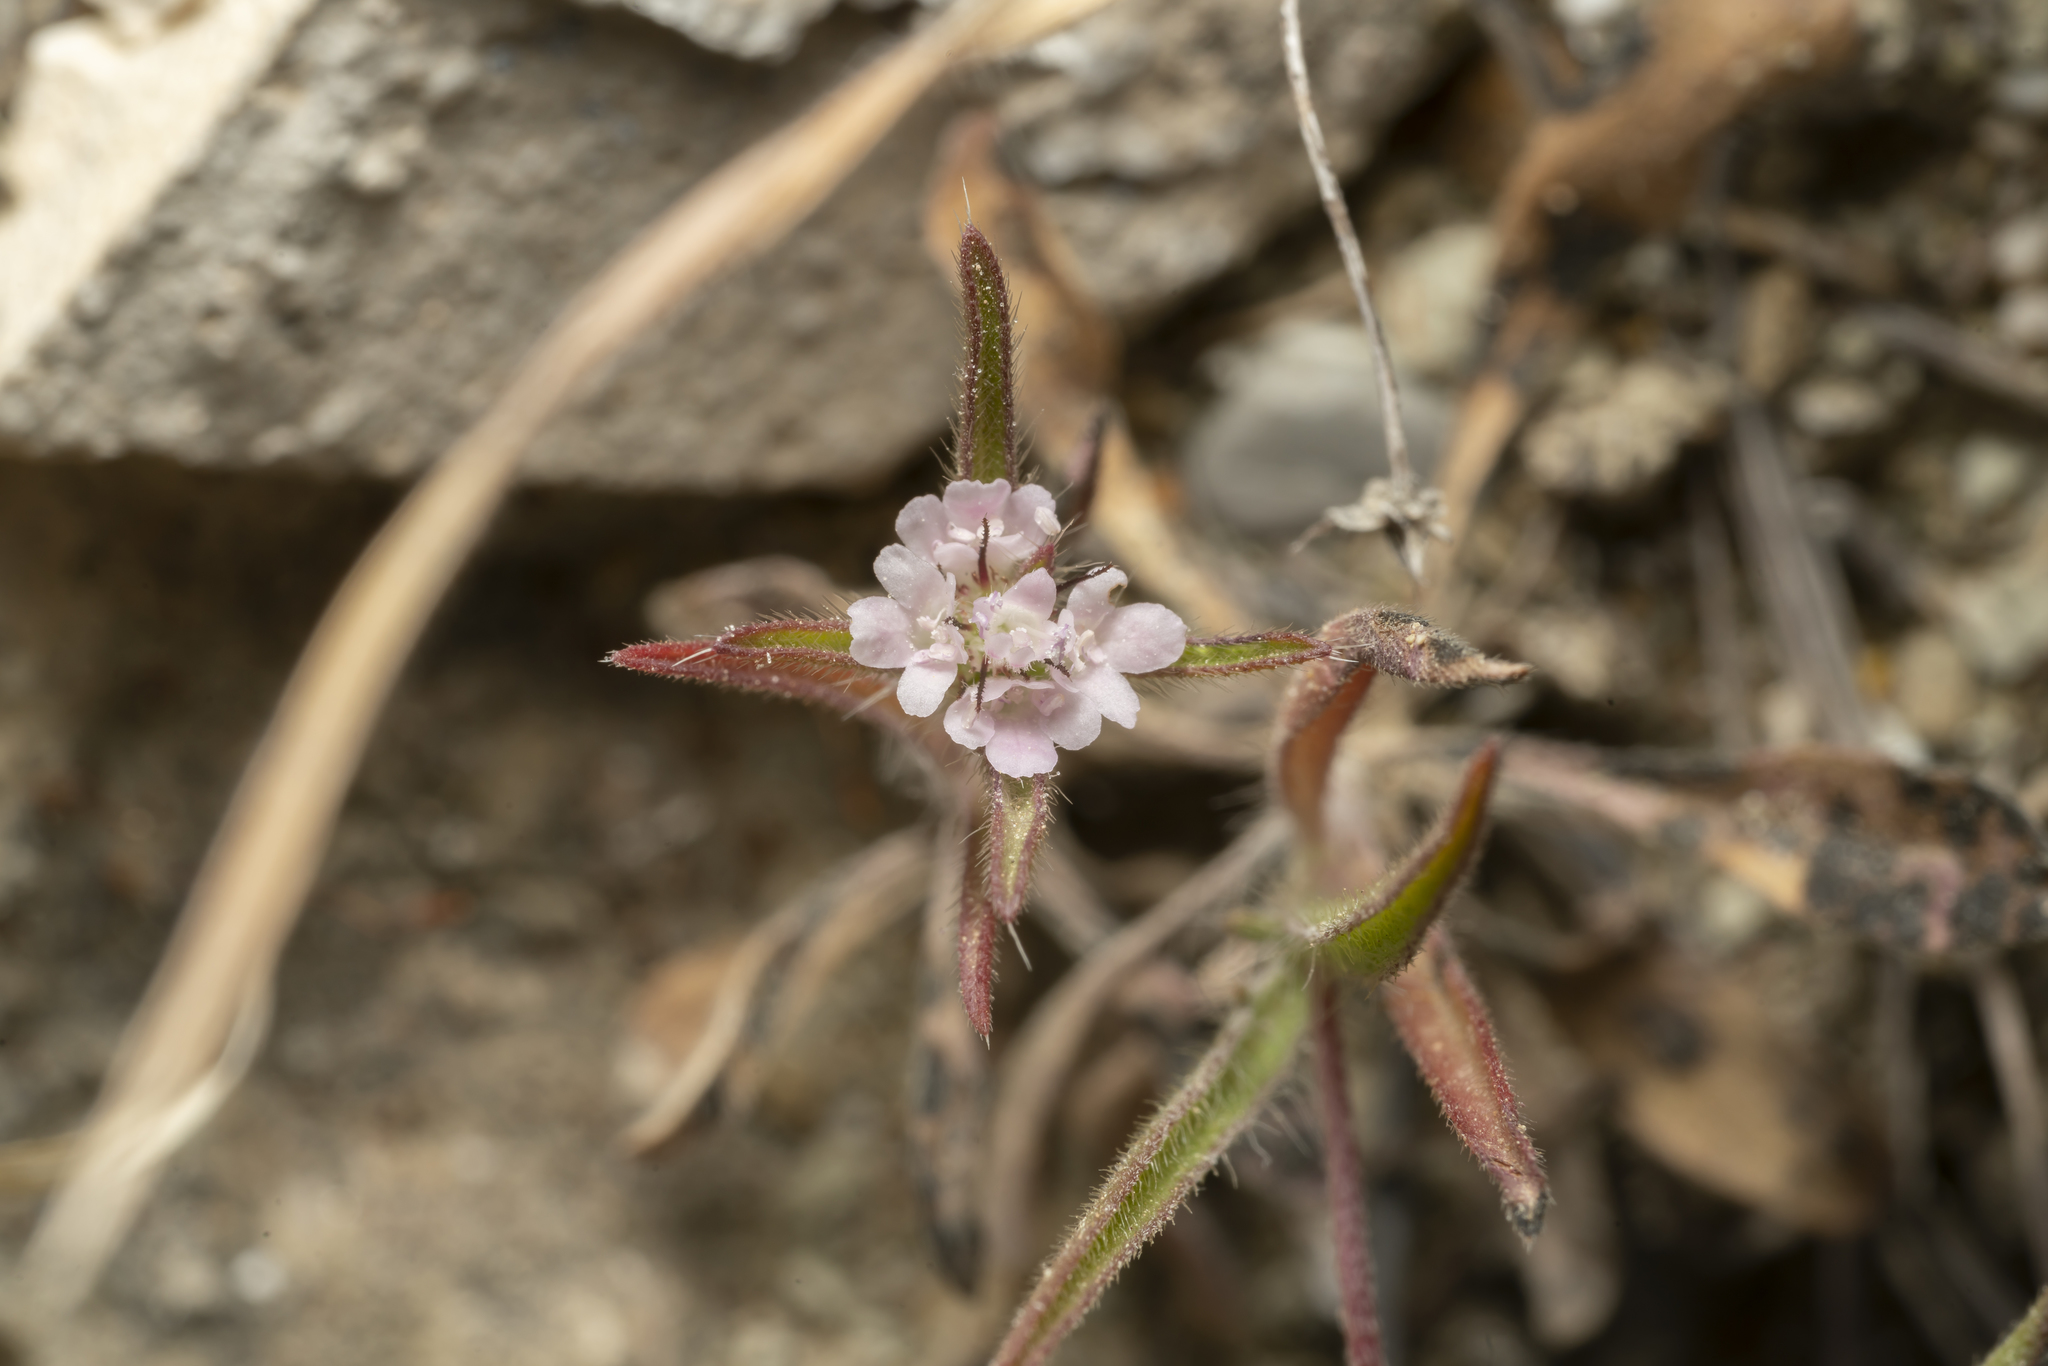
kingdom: Plantae
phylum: Tracheophyta
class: Magnoliopsida
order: Dipsacales
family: Caprifoliaceae
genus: Lomelosia
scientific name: Lomelosia divaricata
